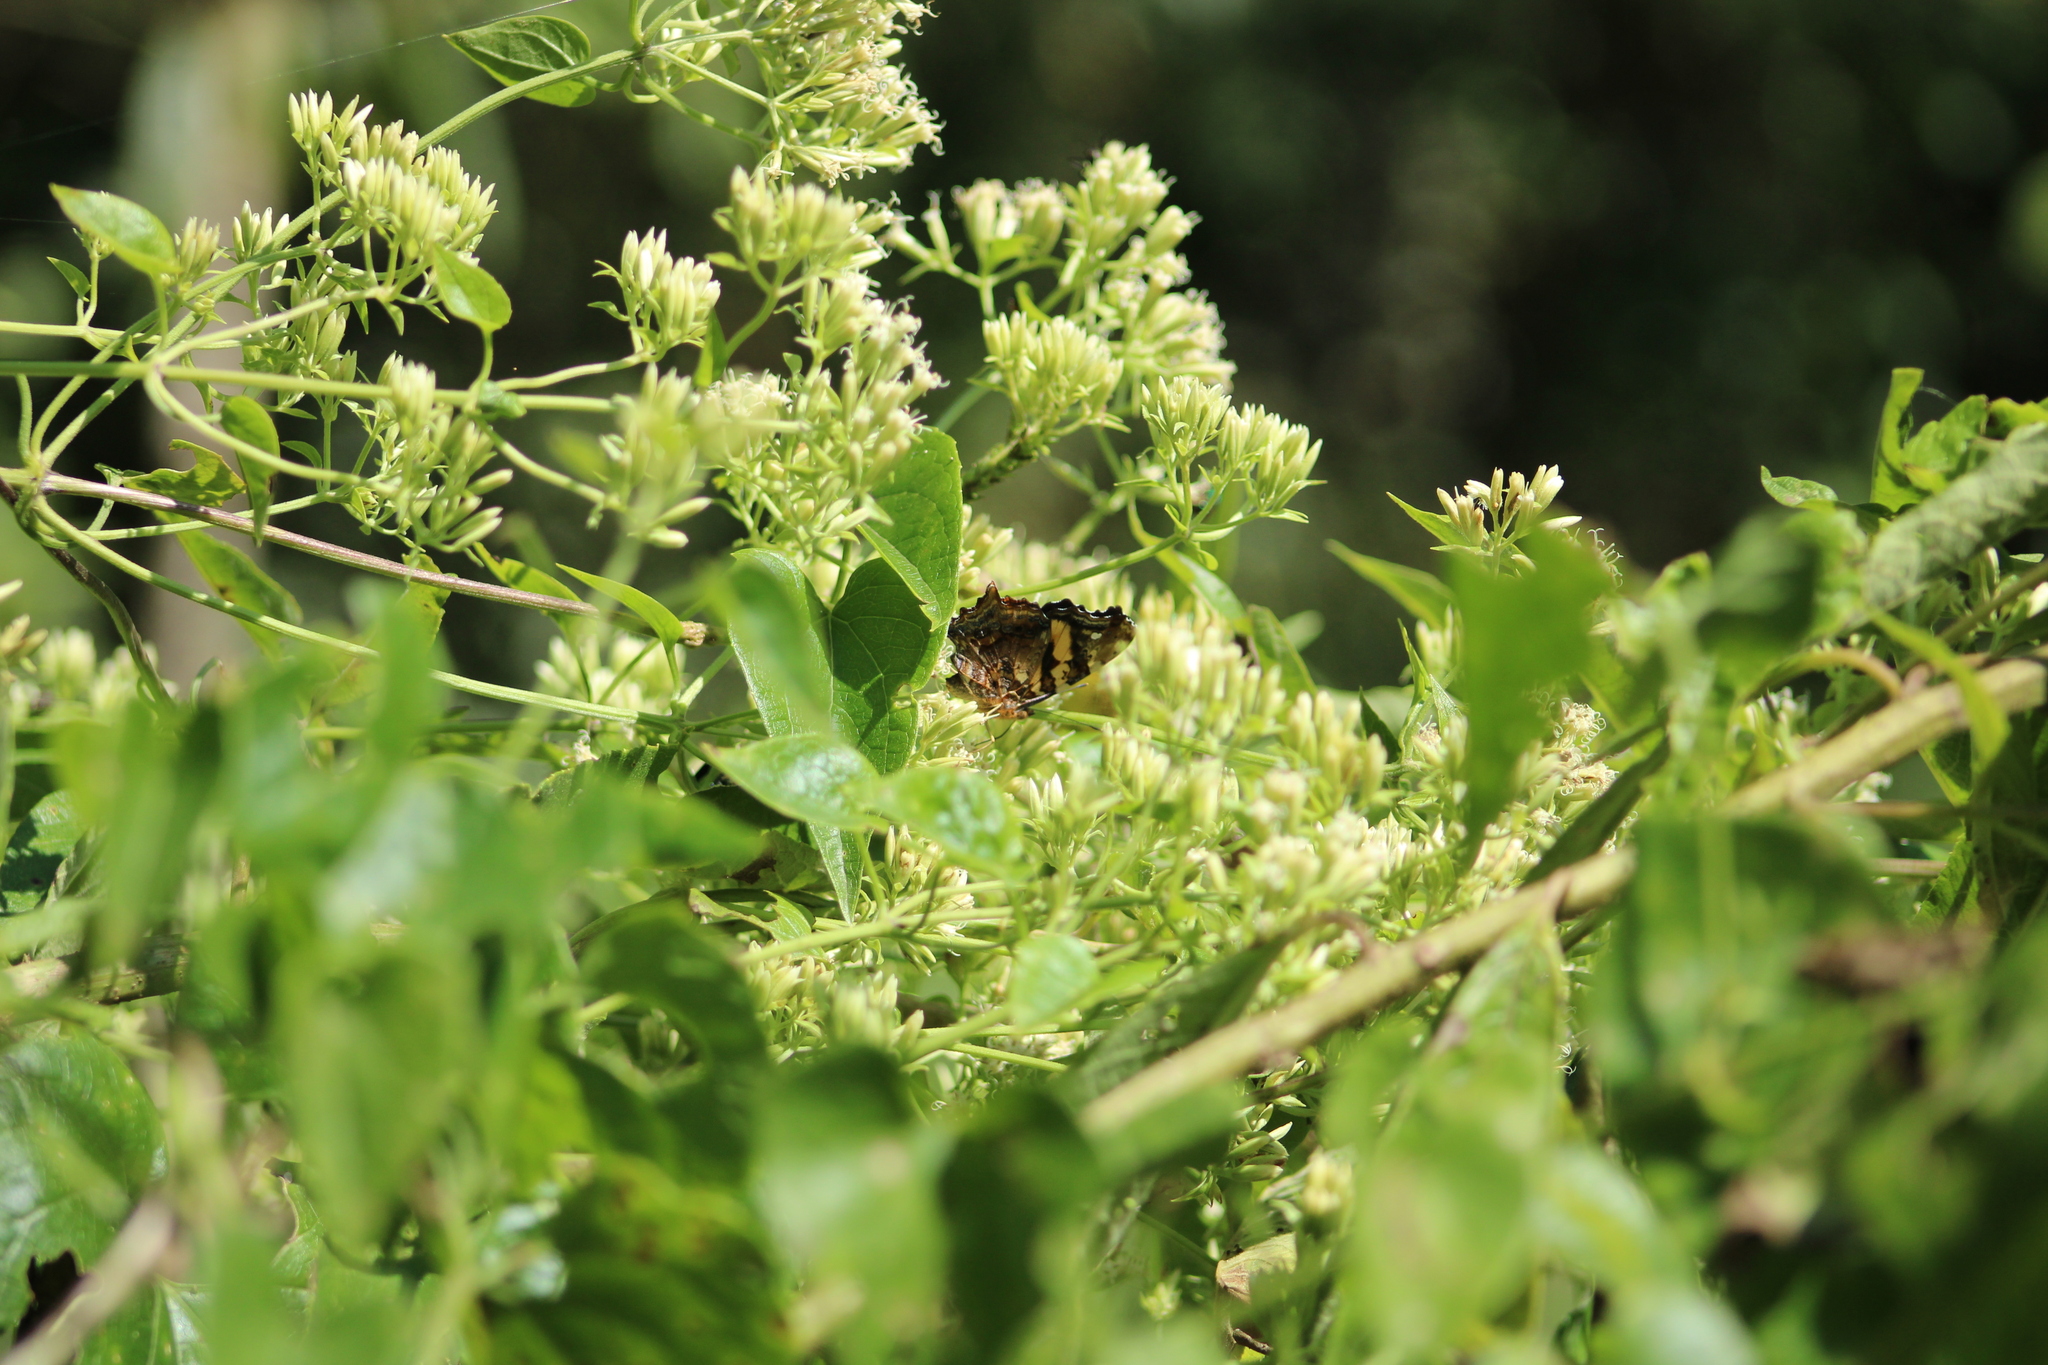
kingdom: Animalia
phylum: Arthropoda
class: Insecta
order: Lepidoptera
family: Nymphalidae
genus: Hypanartia
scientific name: Hypanartia bella
